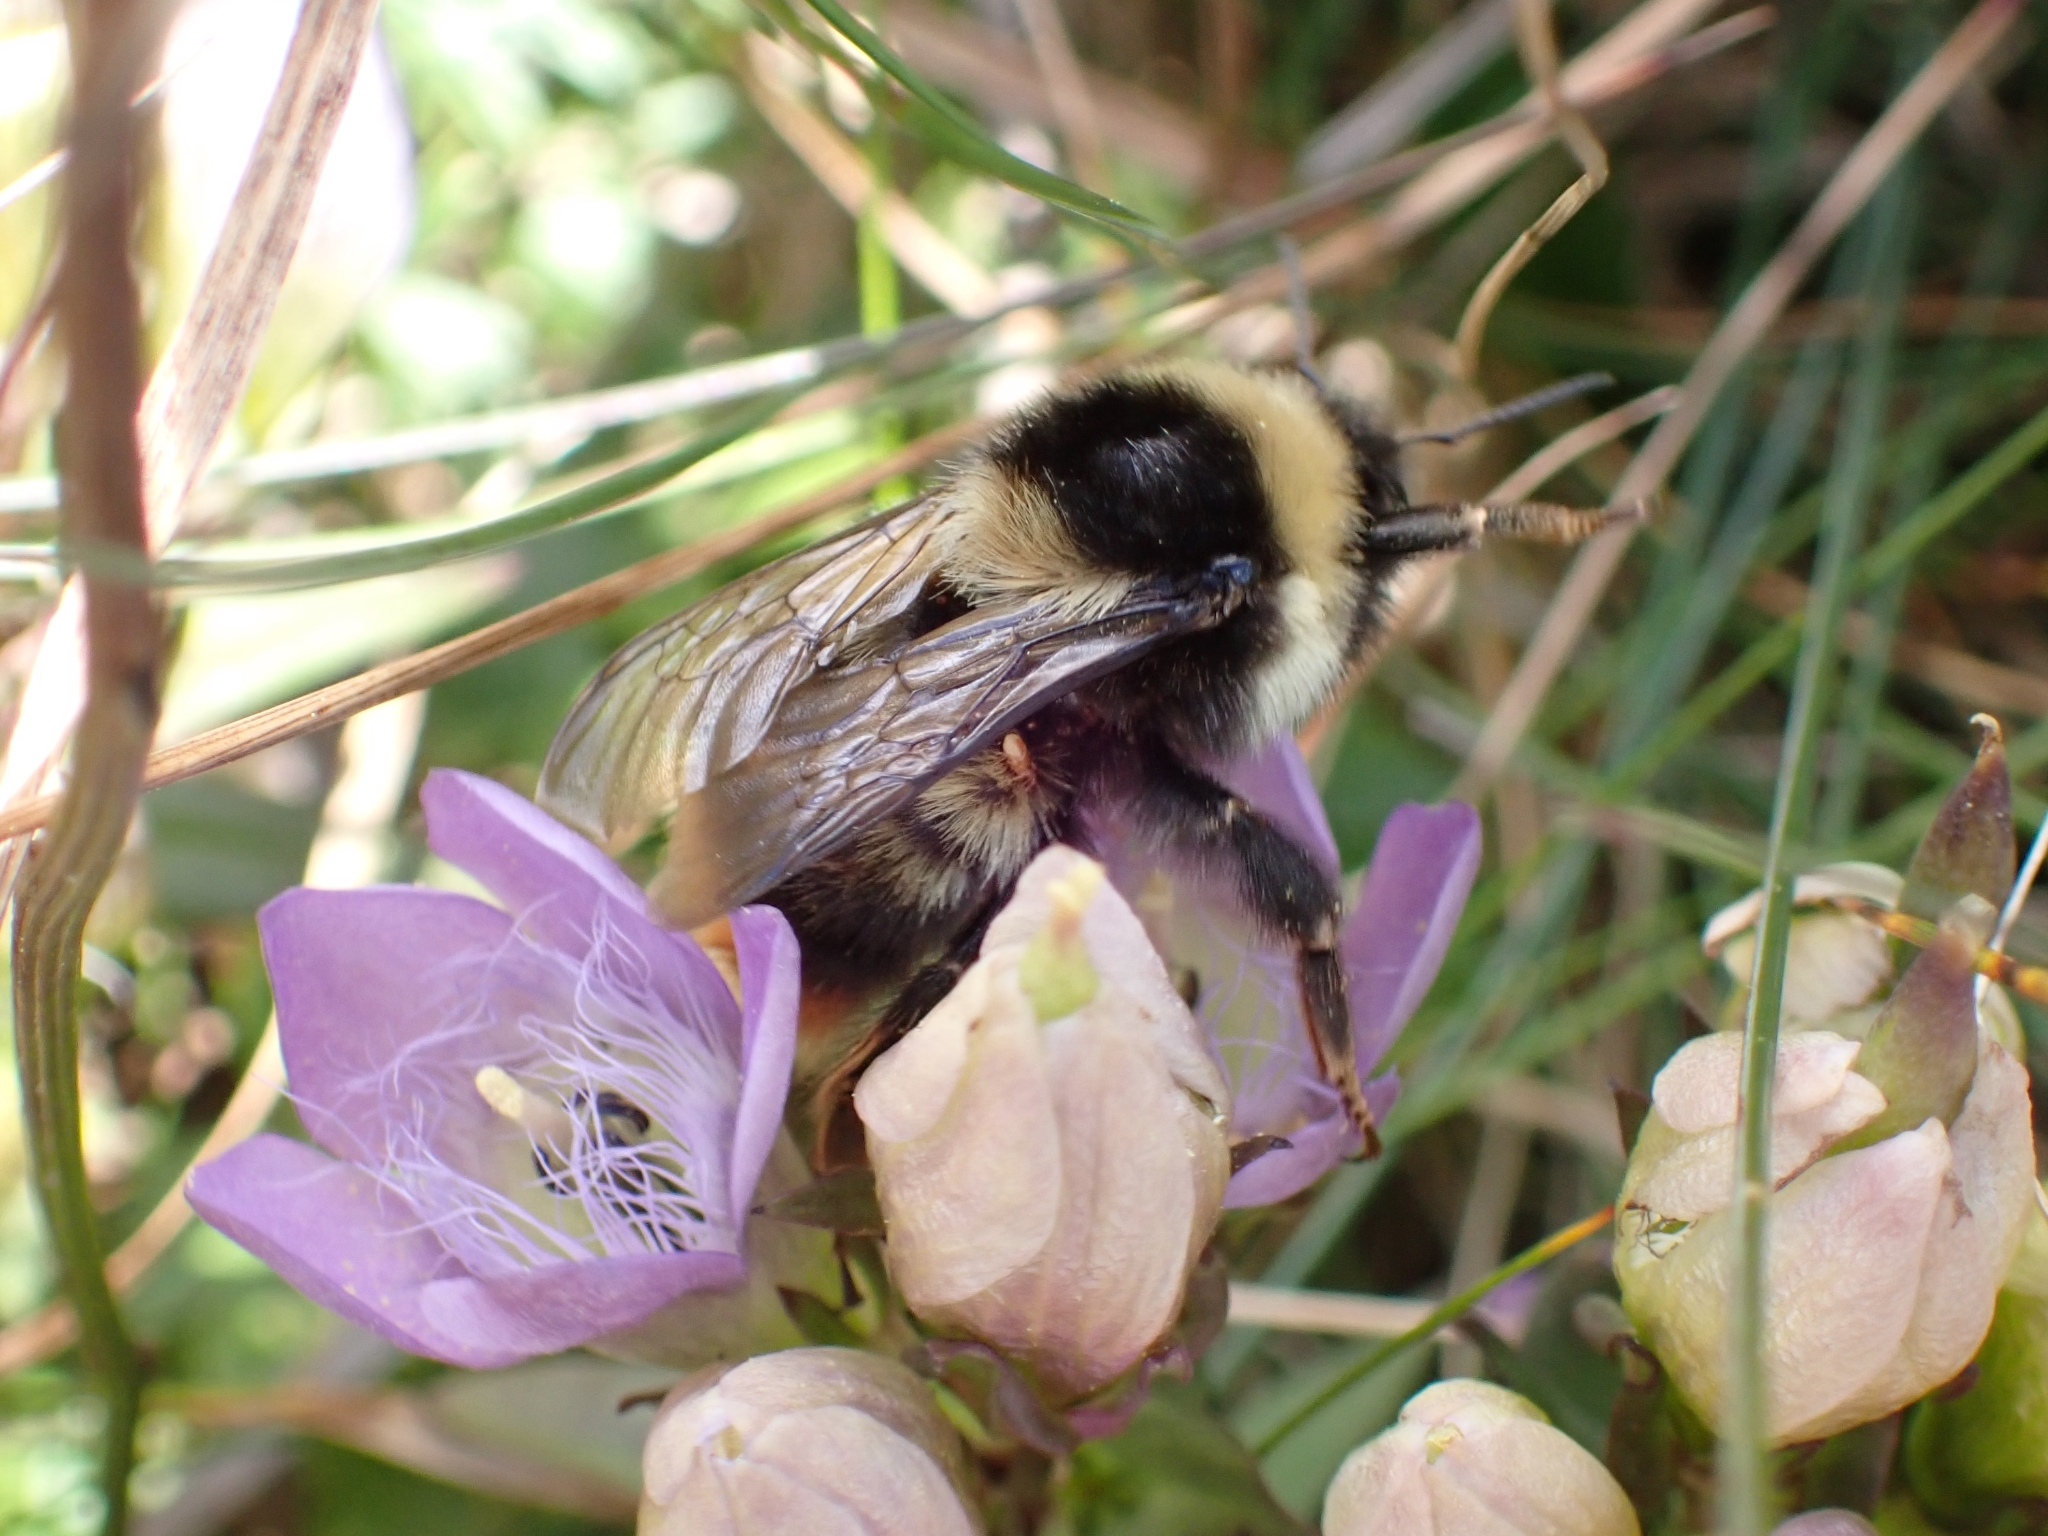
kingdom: Animalia
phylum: Arthropoda
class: Insecta
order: Hymenoptera
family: Apidae
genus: Bombus
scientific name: Bombus sichelii
